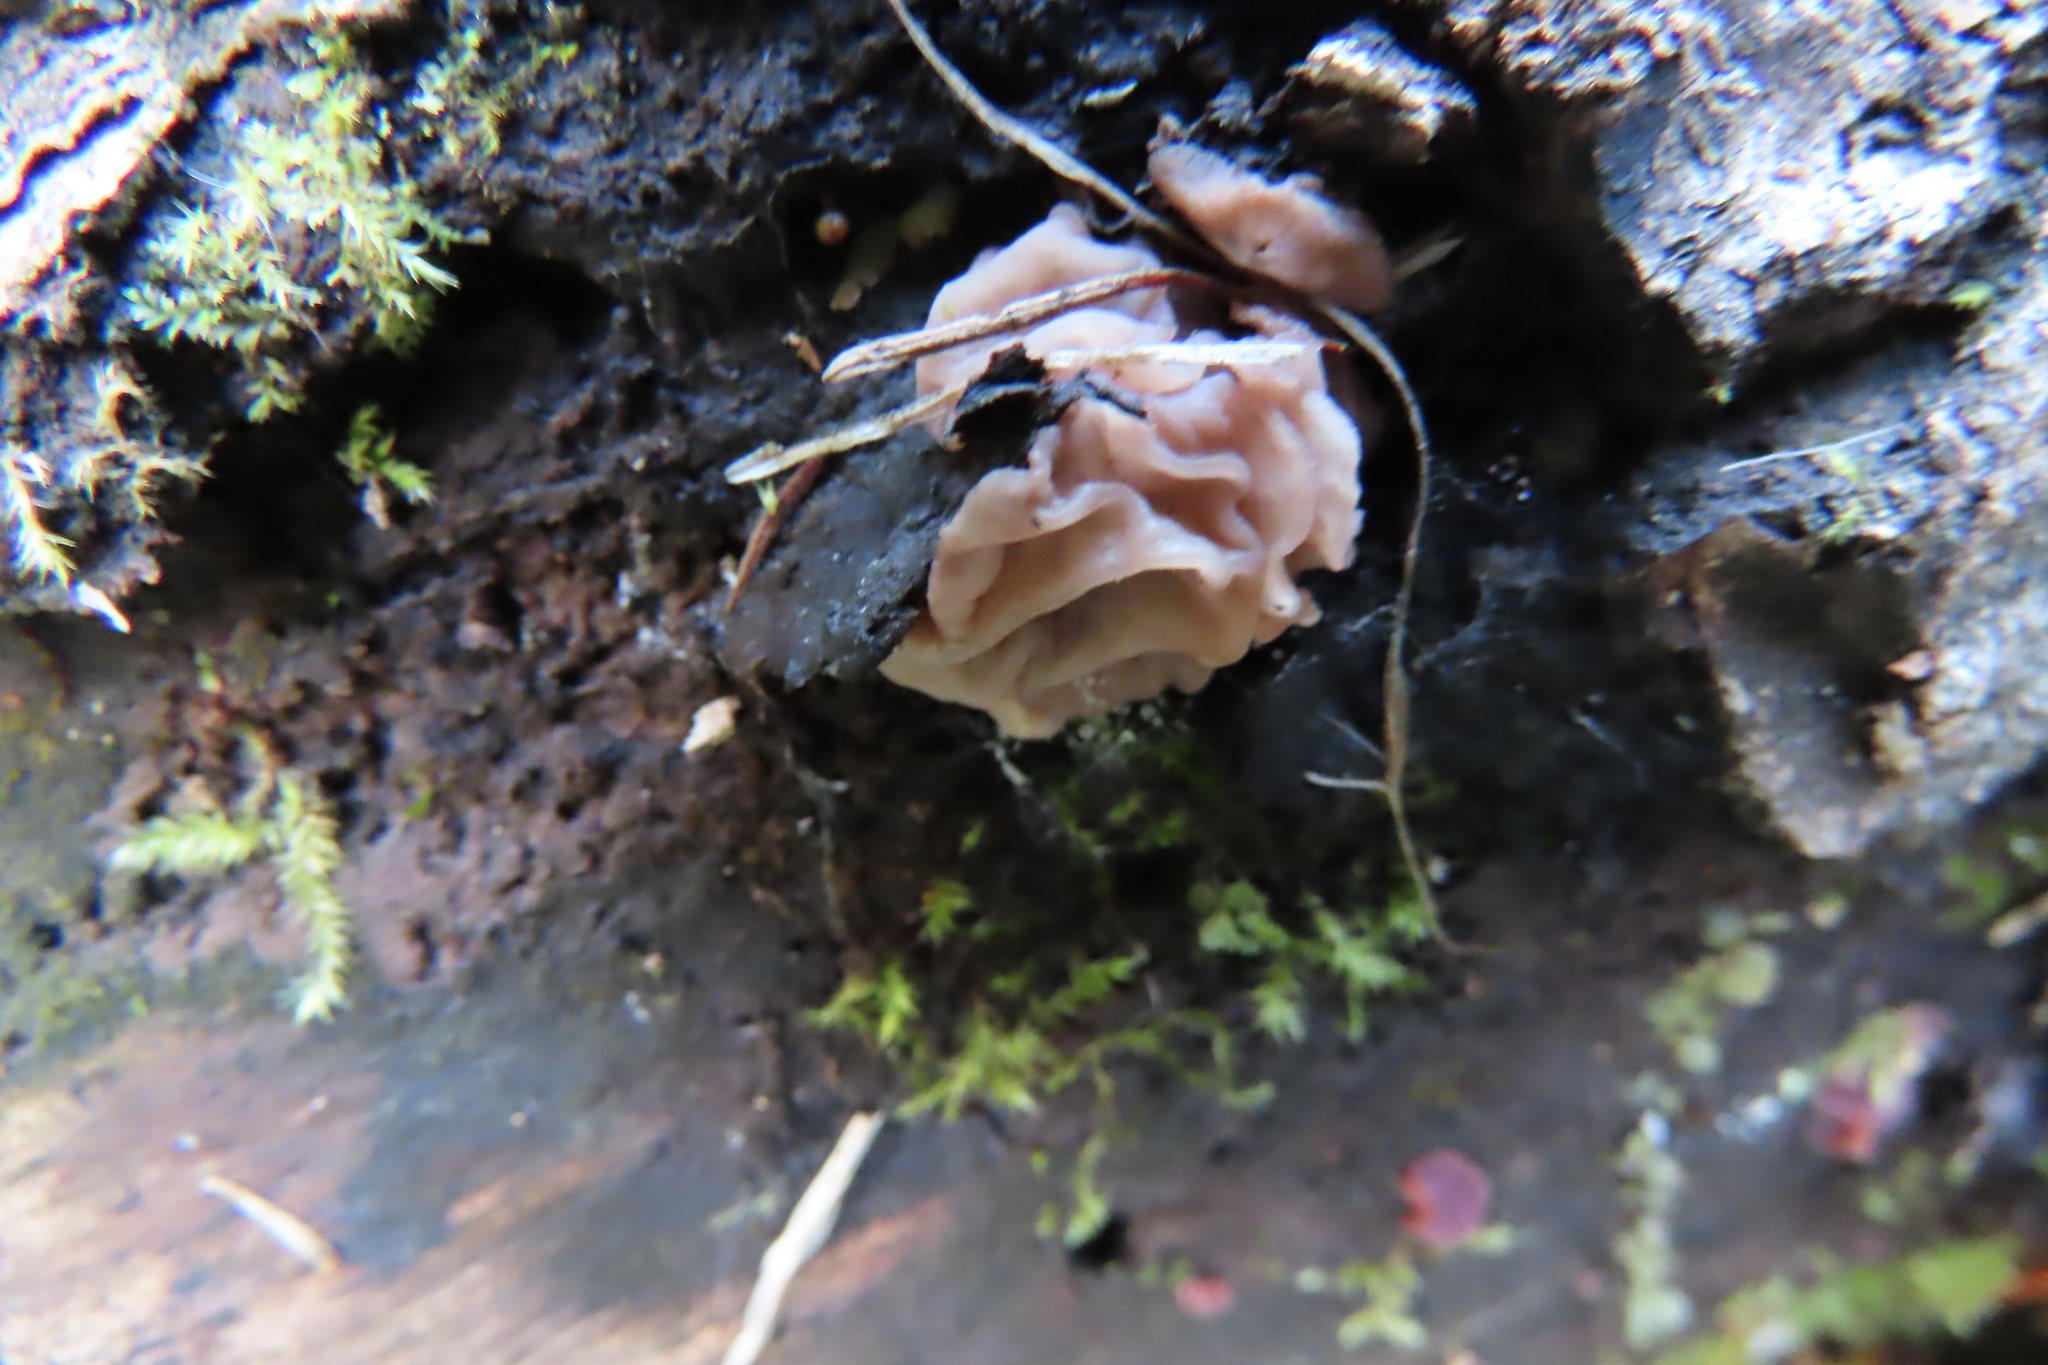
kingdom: Fungi
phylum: Ascomycota
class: Leotiomycetes
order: Helotiales
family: Gelatinodiscaceae
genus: Neobulgaria
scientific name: Neobulgaria pura
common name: Beech jelly-disc
